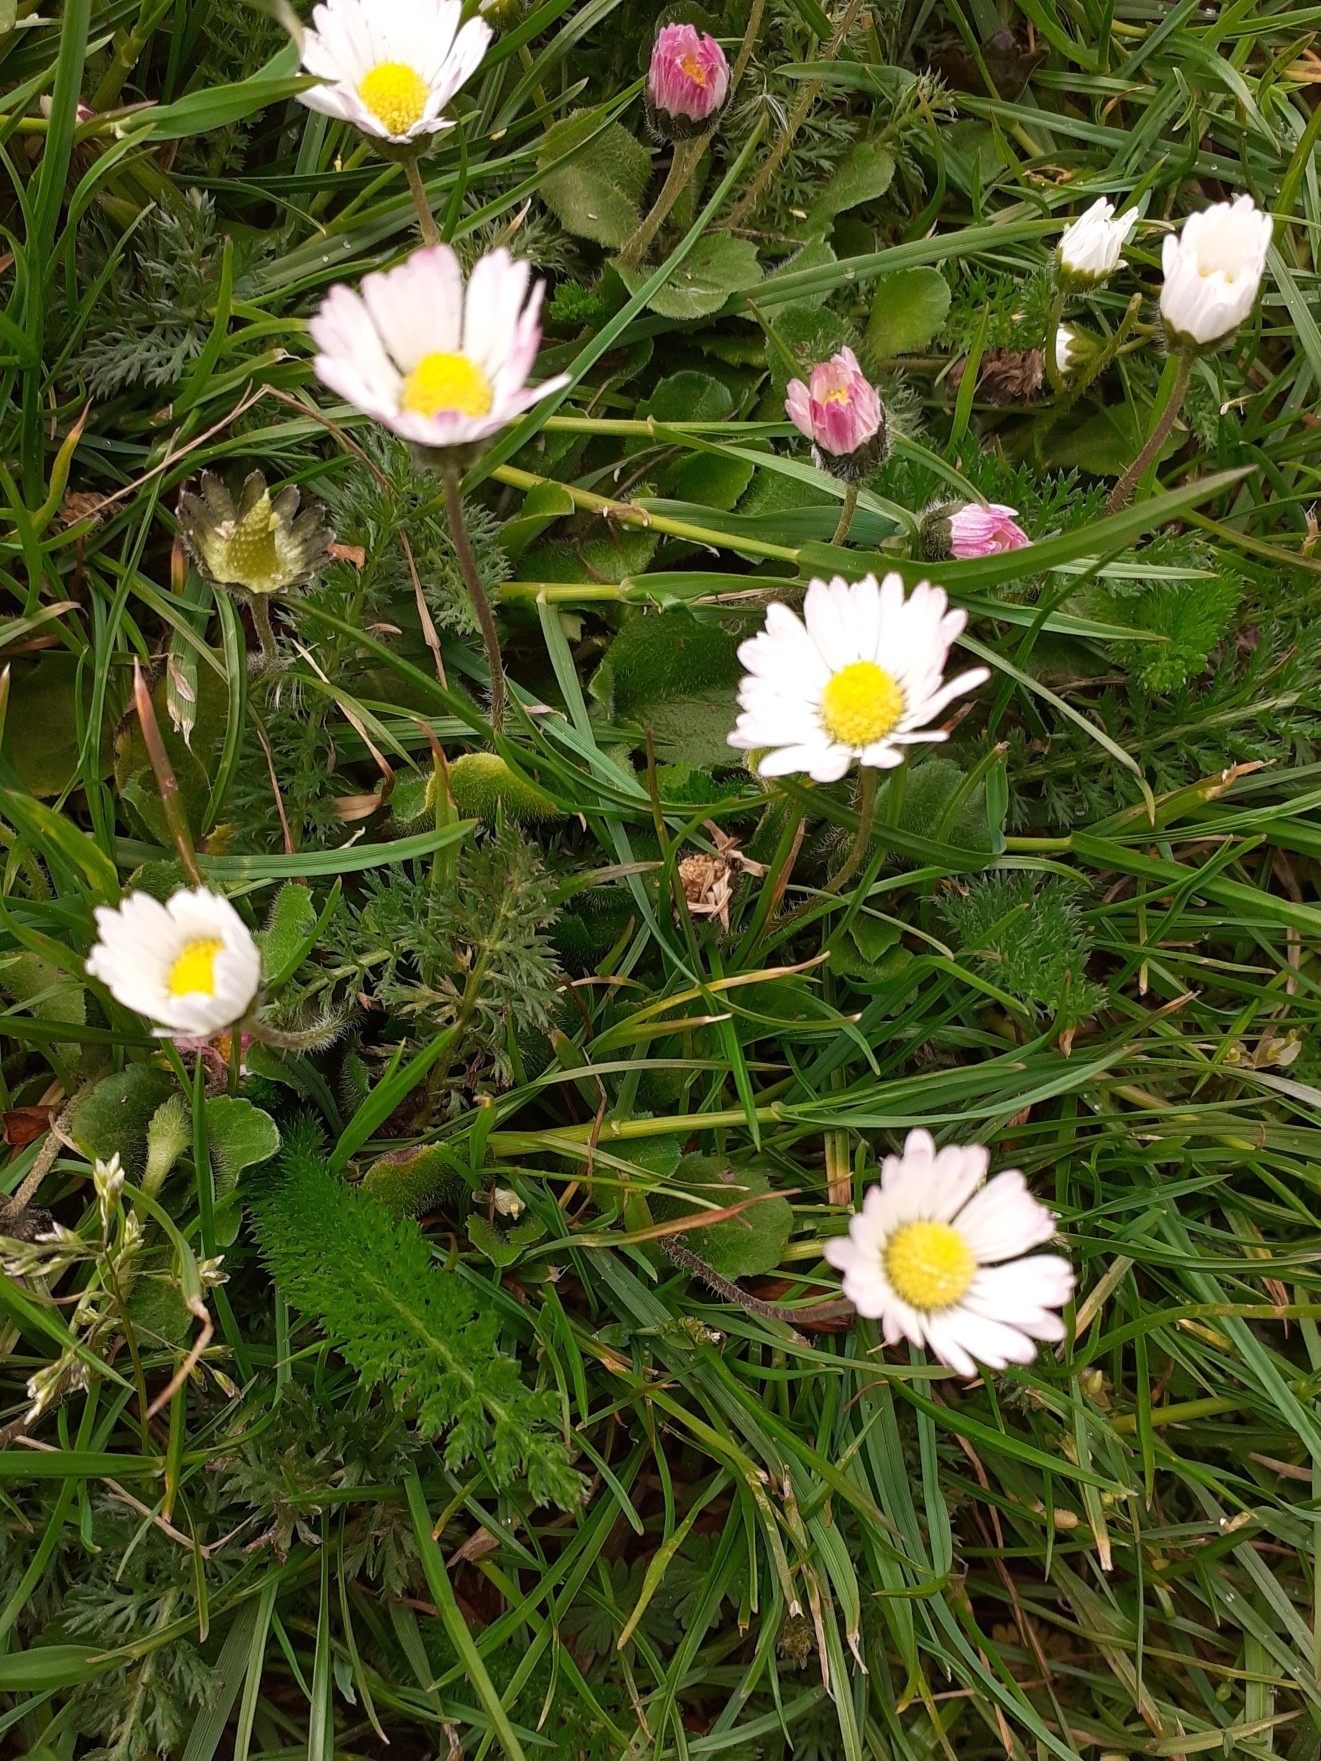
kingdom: Plantae
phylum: Tracheophyta
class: Magnoliopsida
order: Asterales
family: Asteraceae
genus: Bellis
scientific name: Bellis perennis
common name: Lawndaisy
